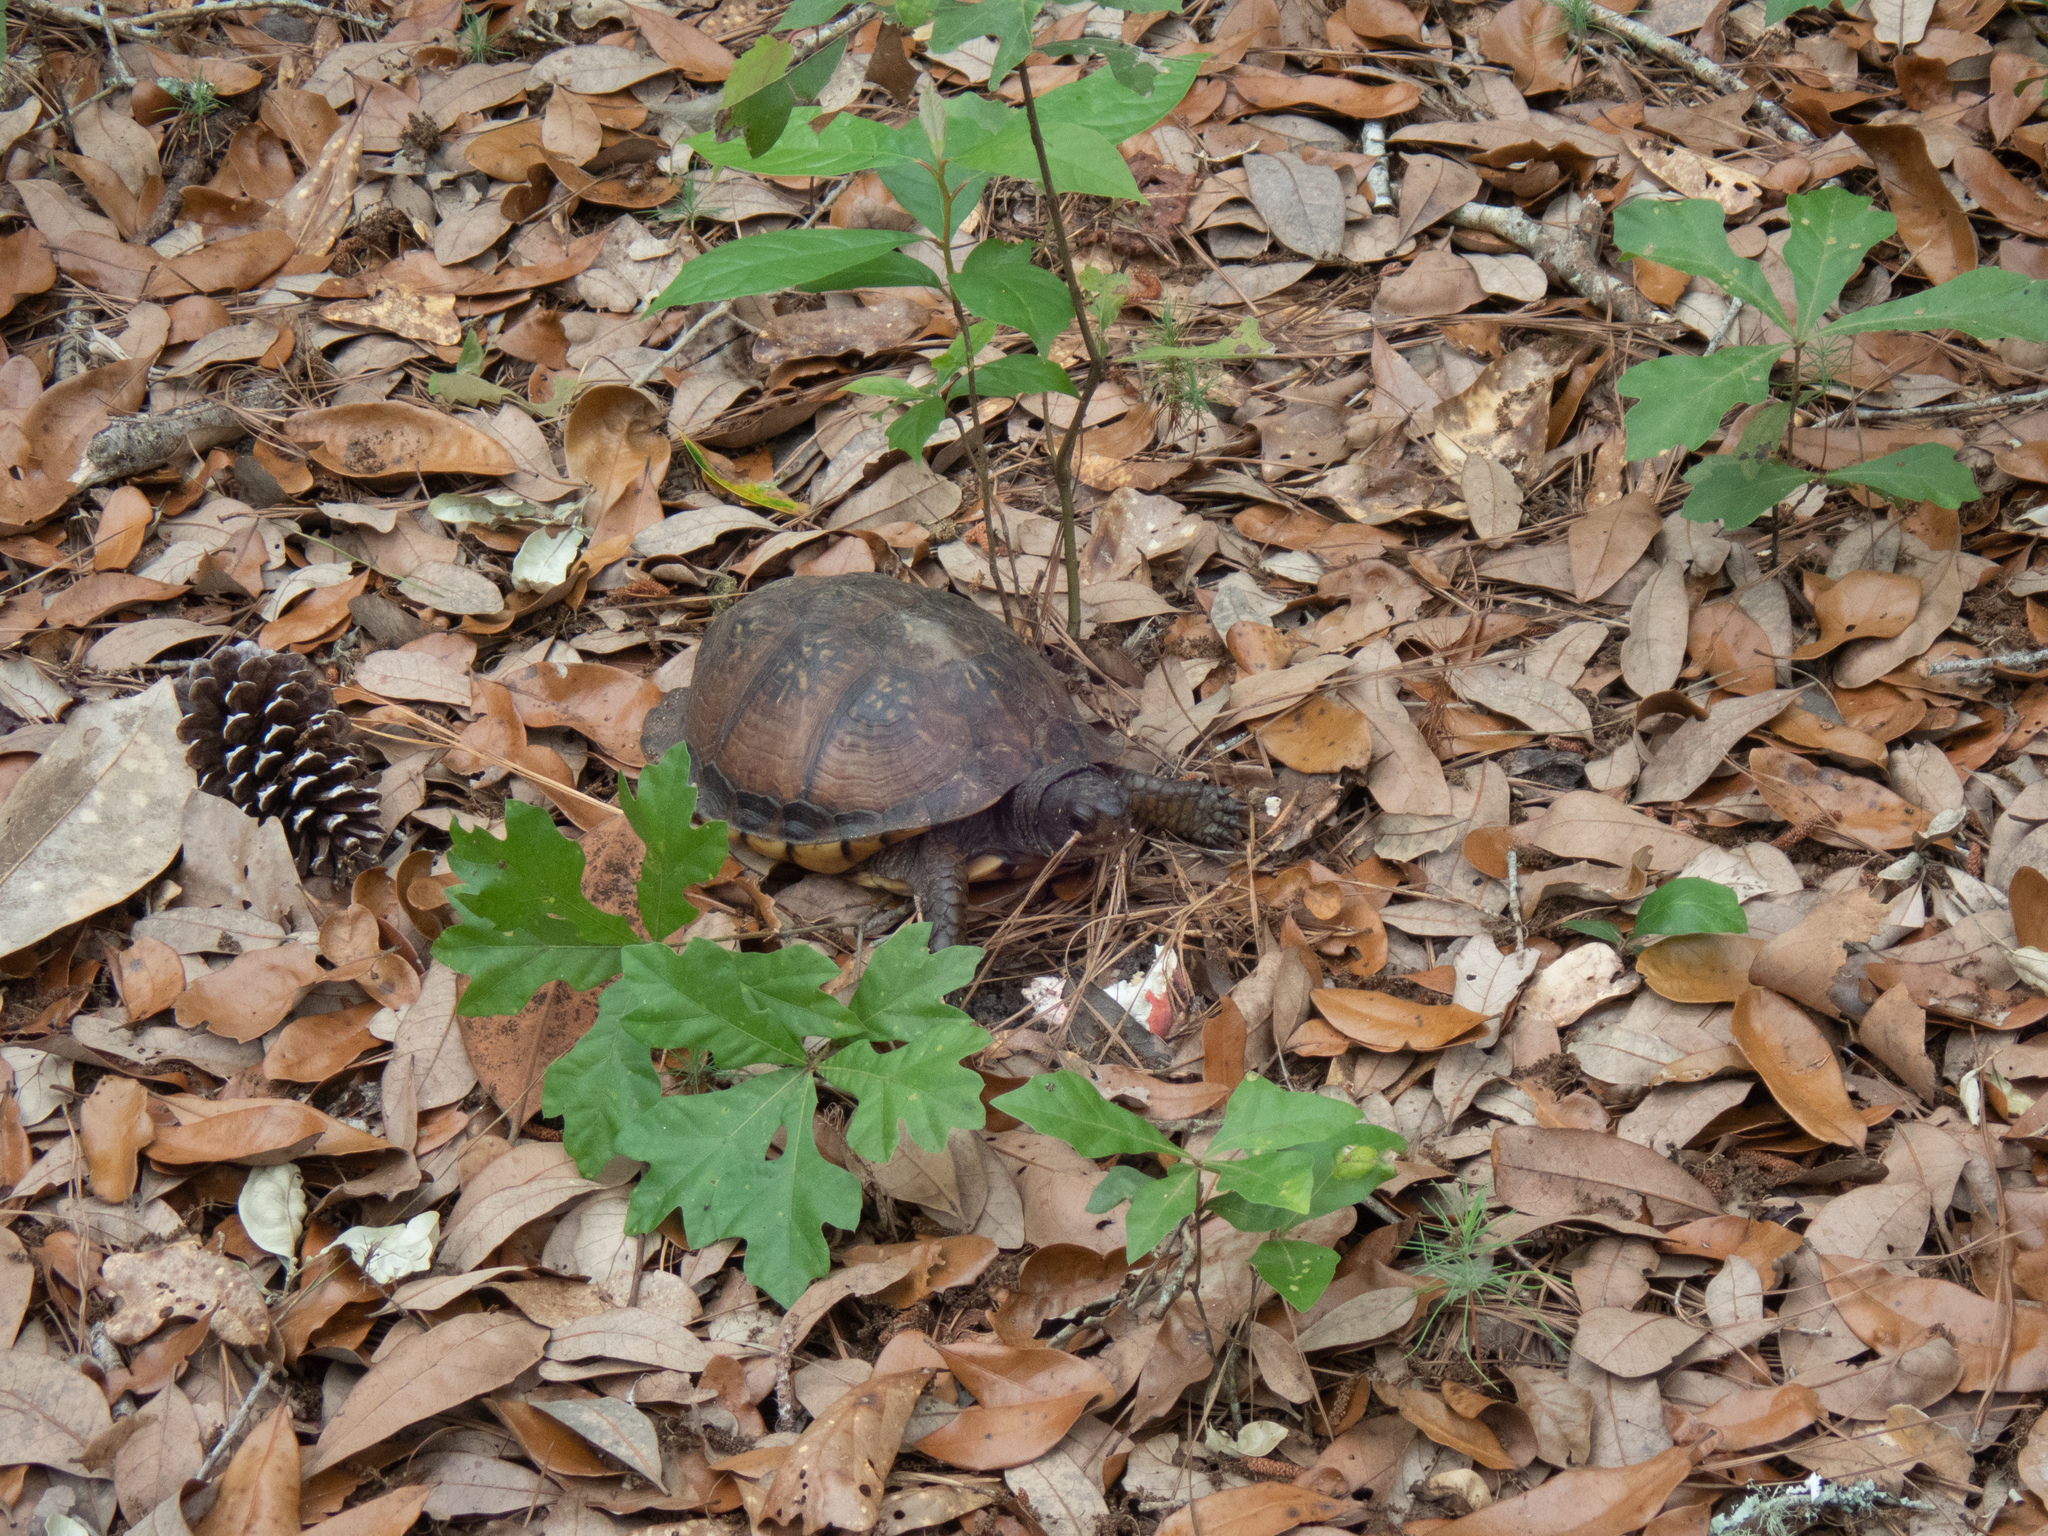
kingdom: Animalia
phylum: Chordata
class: Testudines
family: Emydidae
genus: Terrapene
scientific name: Terrapene carolina
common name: Common box turtle
